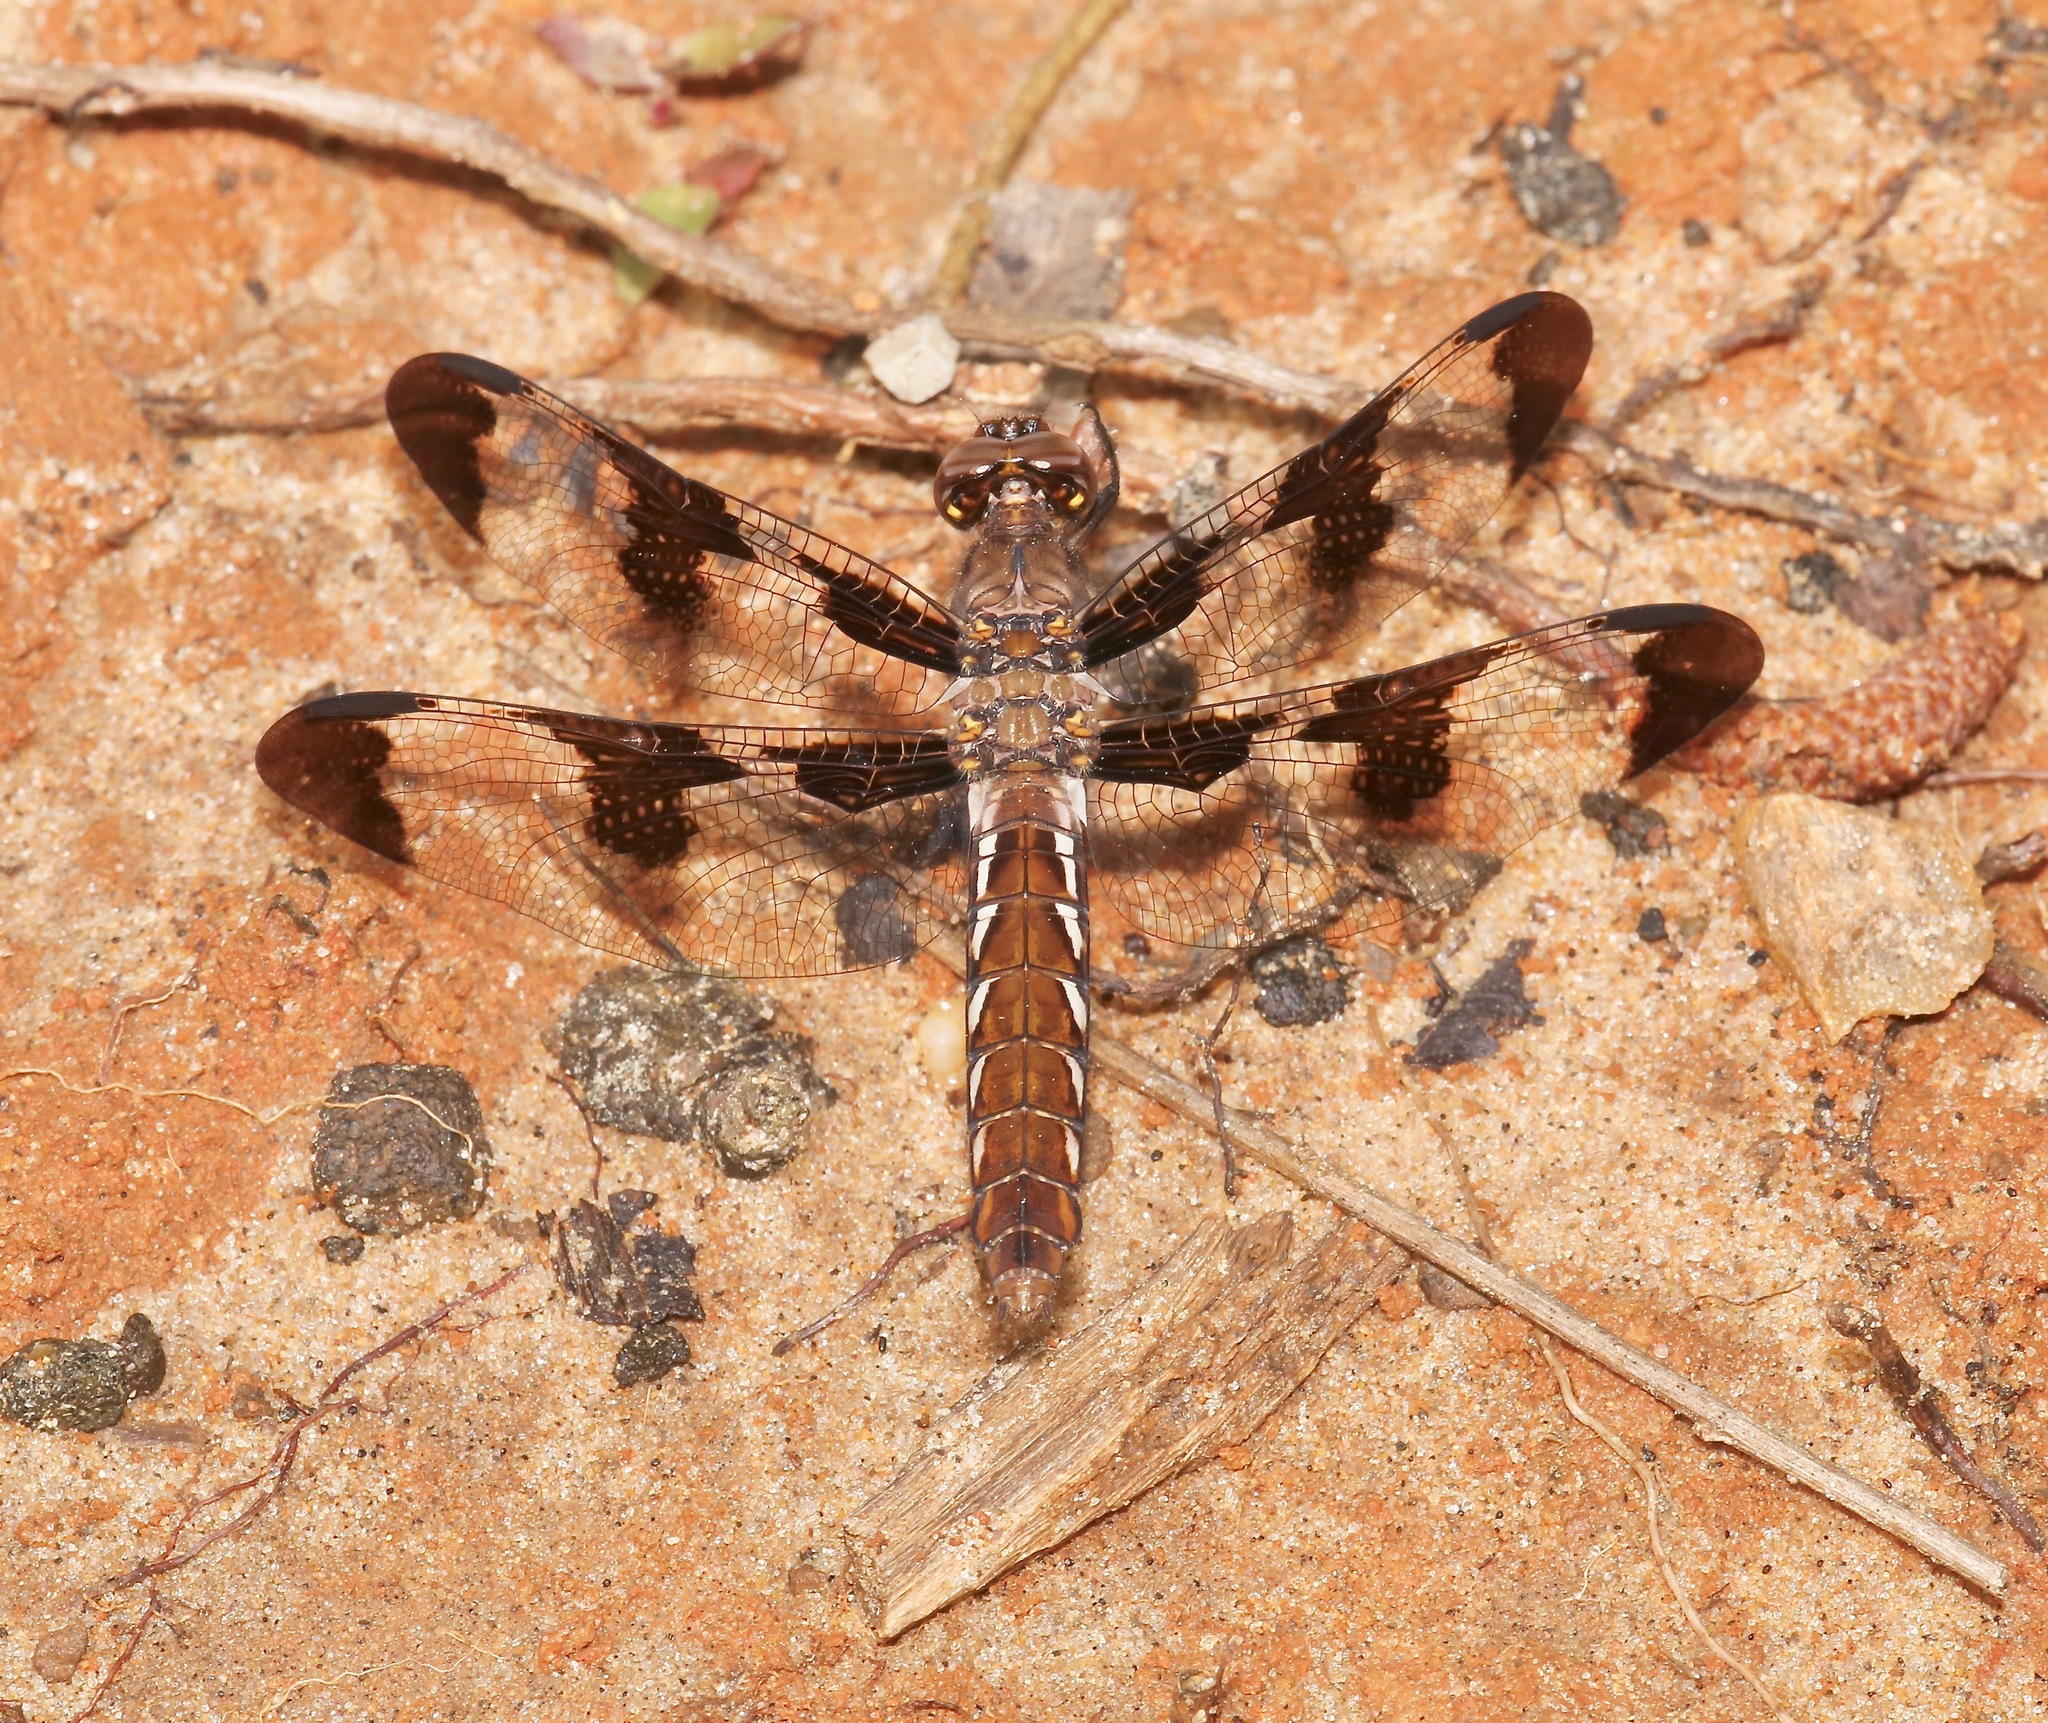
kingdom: Animalia
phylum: Arthropoda
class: Insecta
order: Odonata
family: Libellulidae
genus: Plathemis
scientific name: Plathemis lydia
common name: Common whitetail
